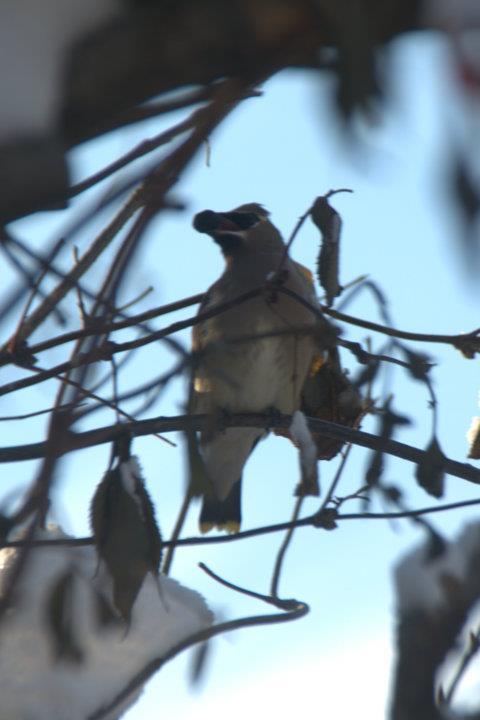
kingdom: Animalia
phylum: Chordata
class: Aves
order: Passeriformes
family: Bombycillidae
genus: Bombycilla
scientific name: Bombycilla cedrorum
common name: Cedar waxwing
